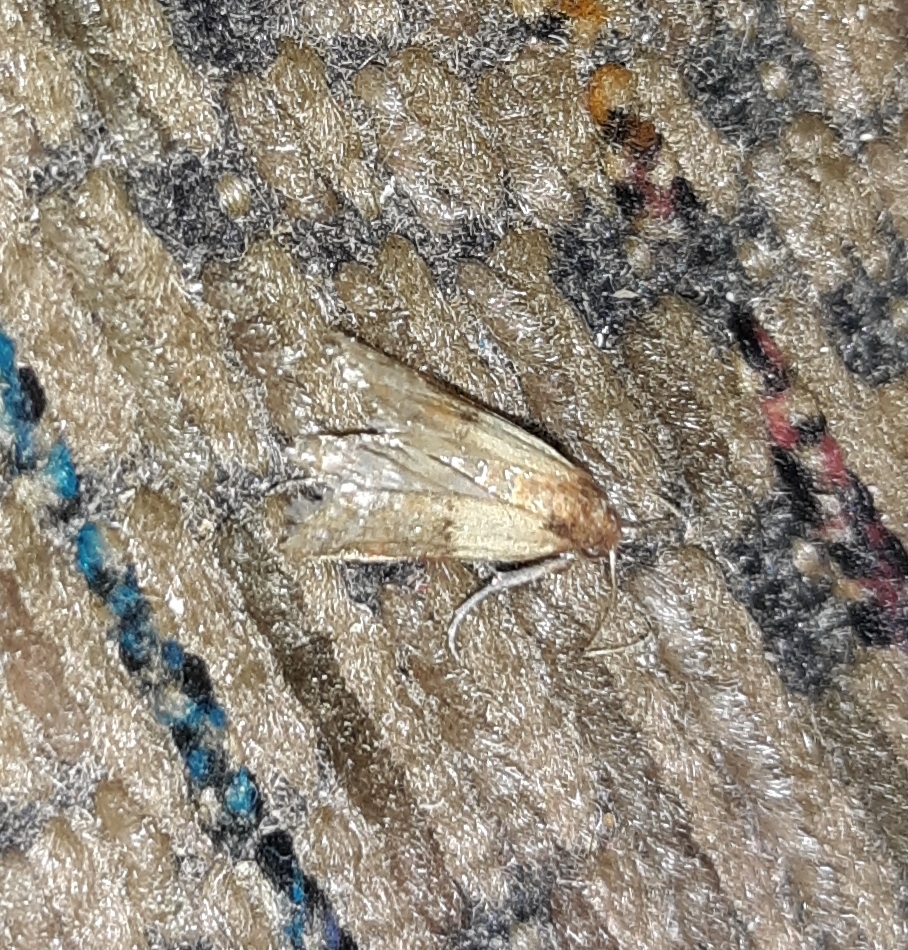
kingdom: Animalia
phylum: Arthropoda
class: Insecta
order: Lepidoptera
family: Pyralidae
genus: Plodia
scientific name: Plodia interpunctella
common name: Indian meal moth
